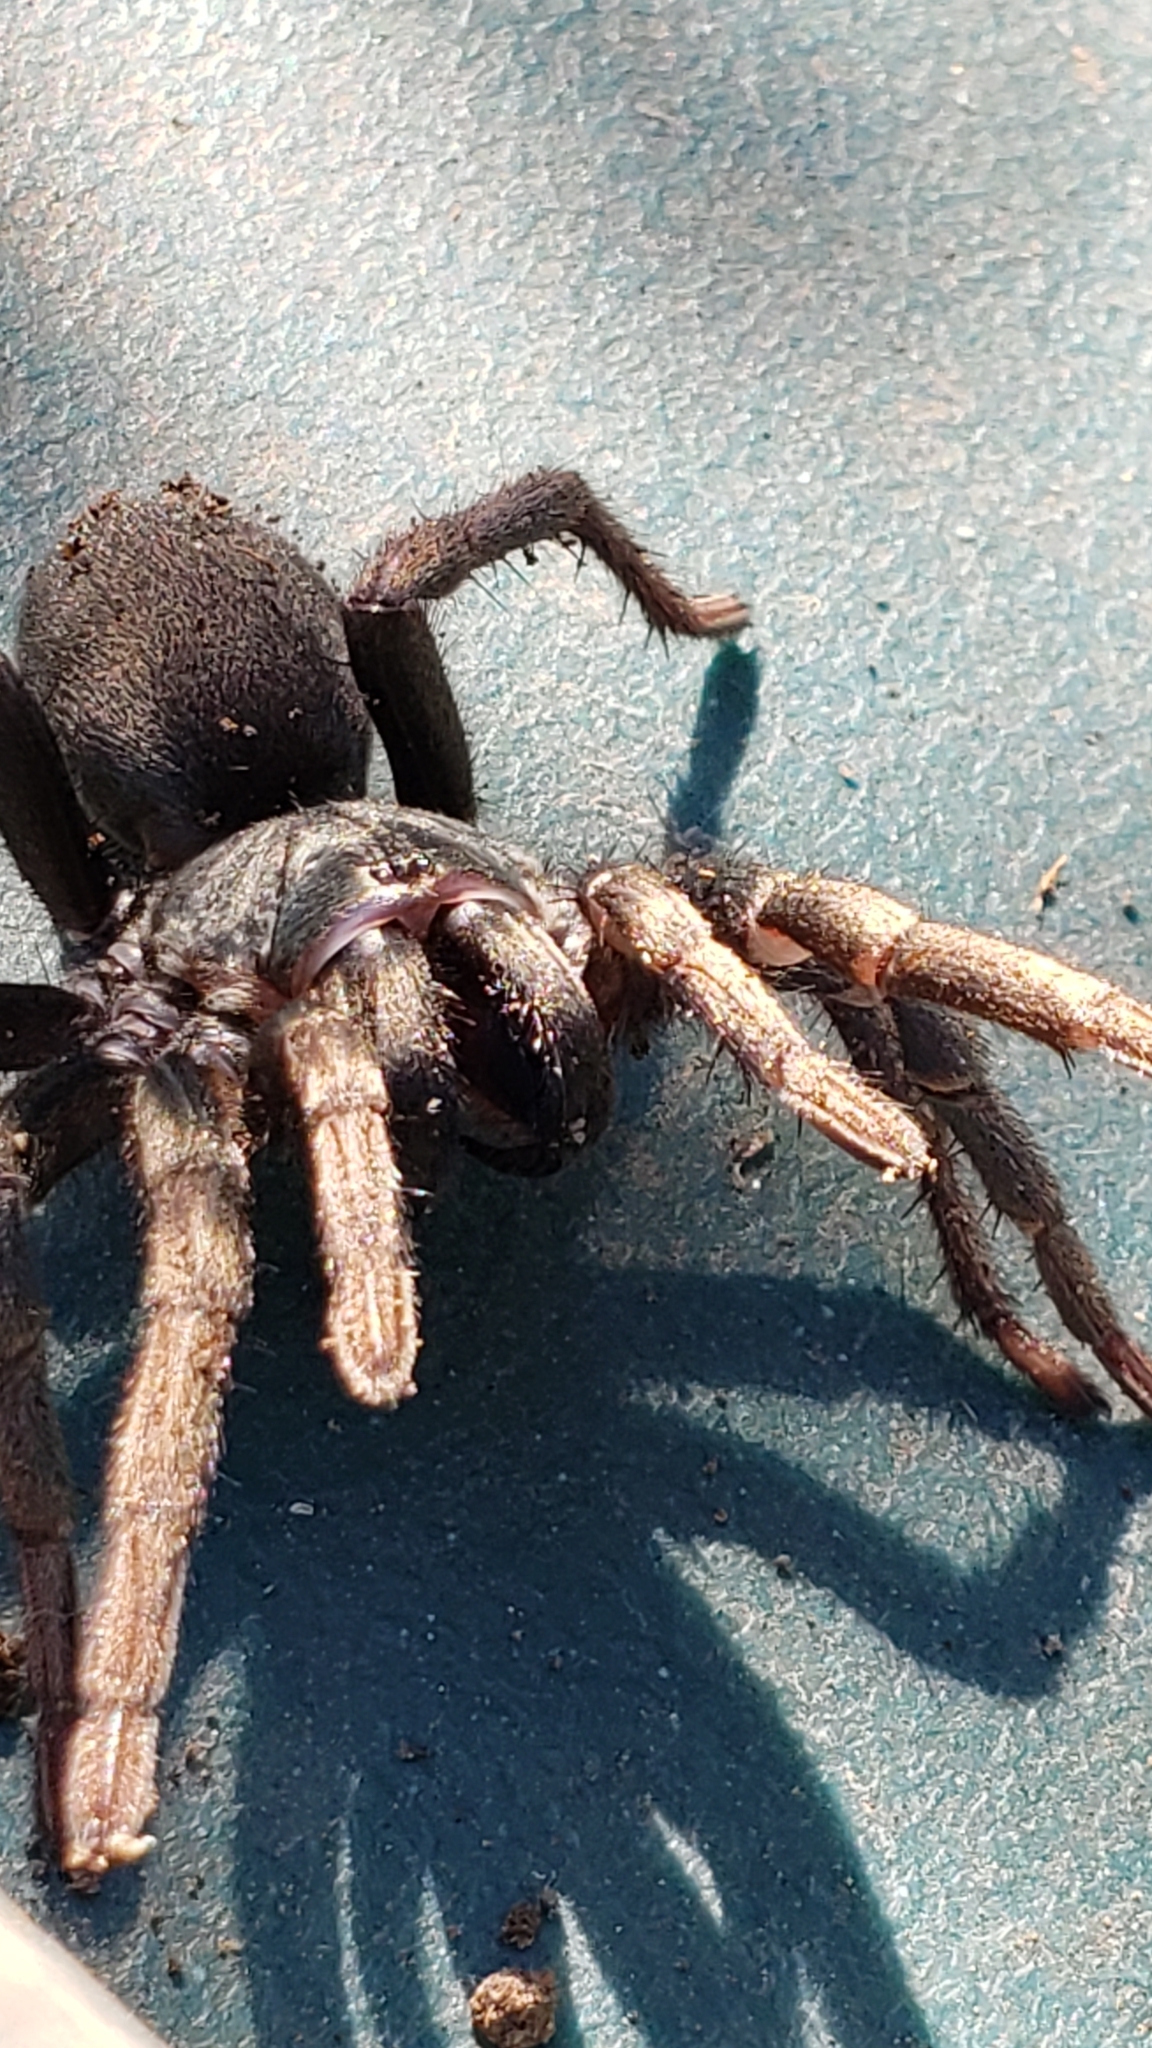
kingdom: Animalia
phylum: Arthropoda
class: Arachnida
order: Araneae
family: Nemesiidae
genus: Calisoga
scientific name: Calisoga longitarsis
